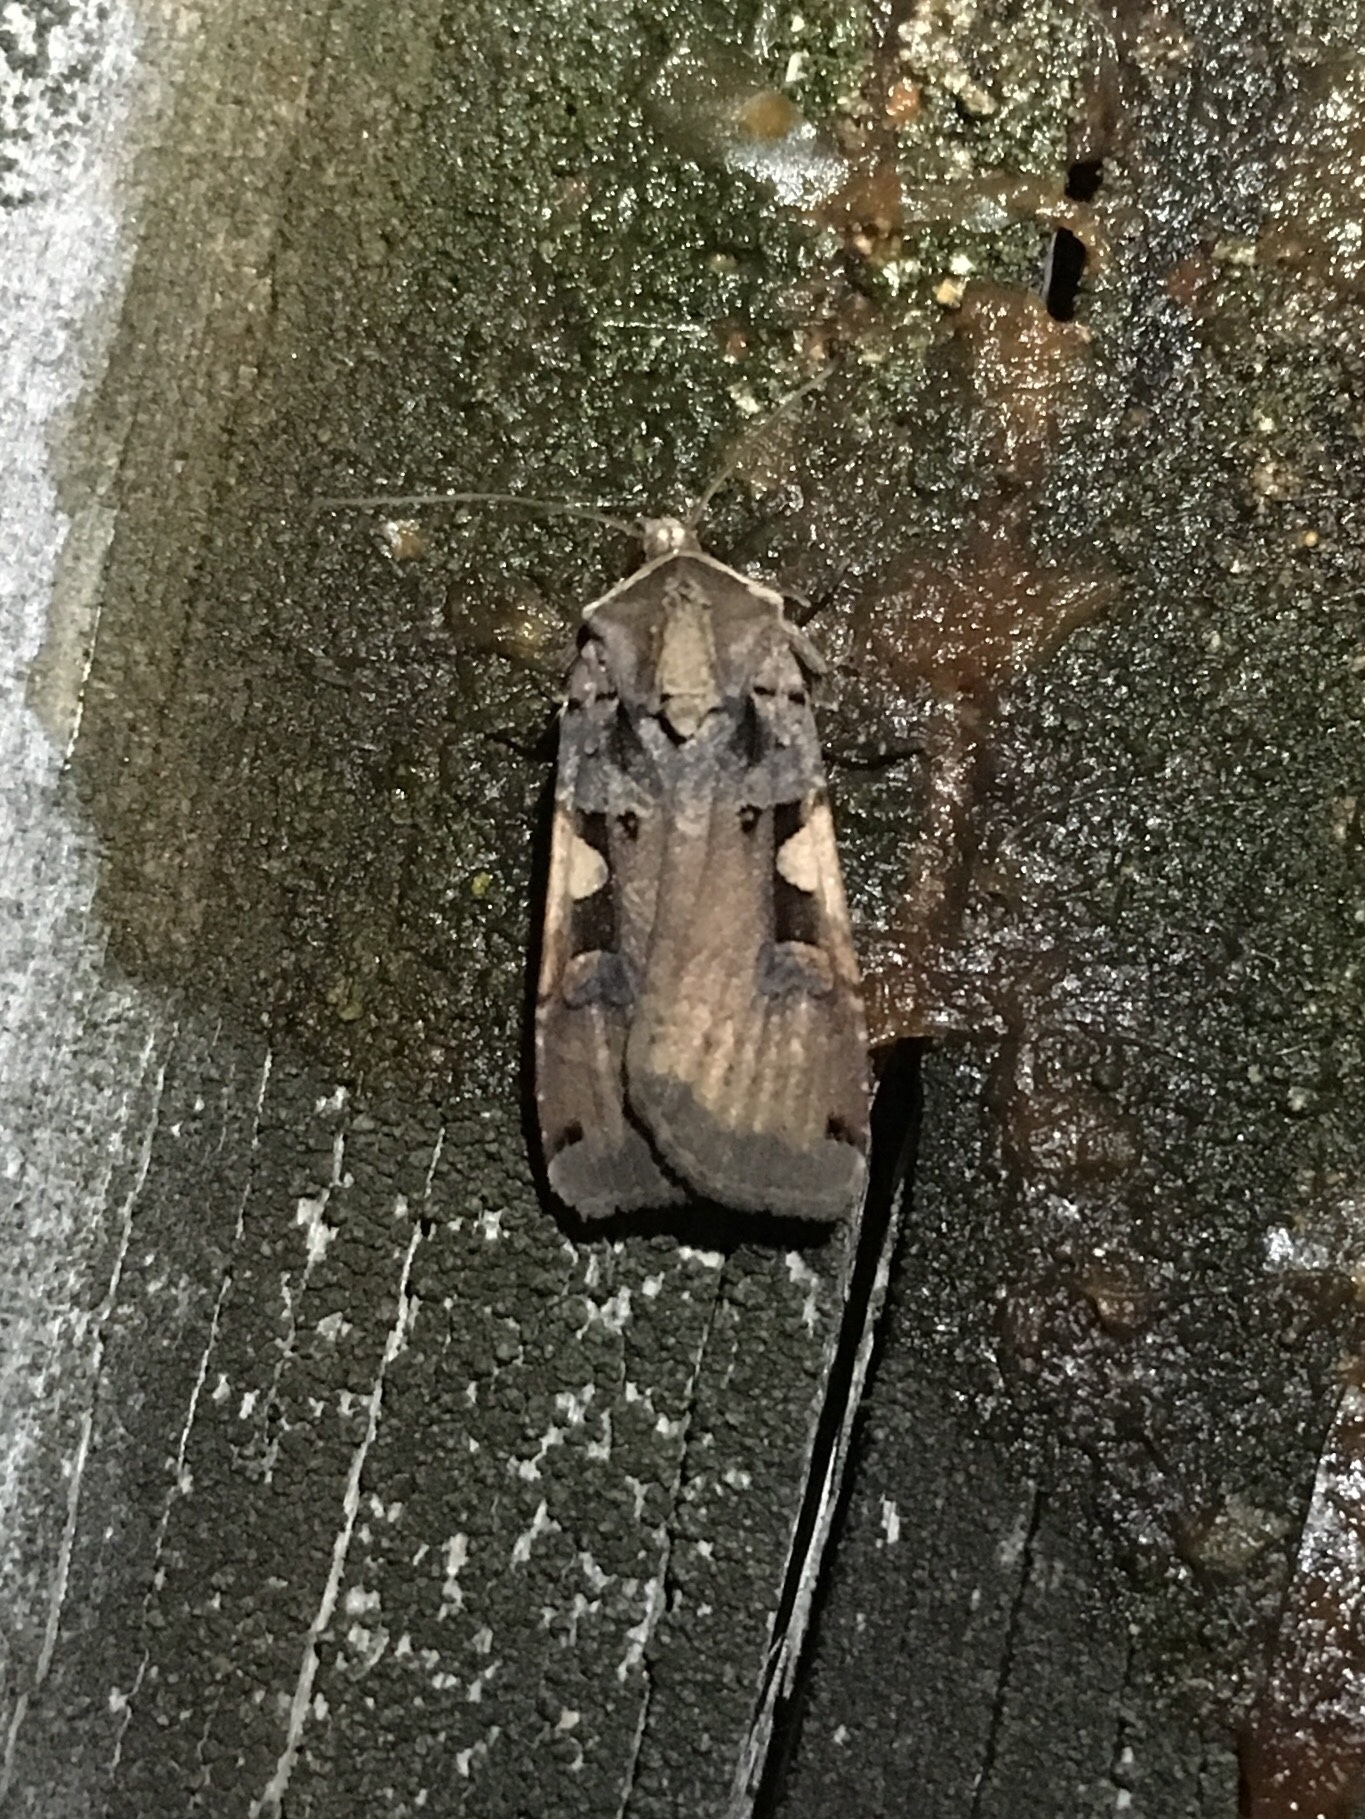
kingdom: Animalia
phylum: Arthropoda
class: Insecta
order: Lepidoptera
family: Noctuidae
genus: Xestia
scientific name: Xestia
